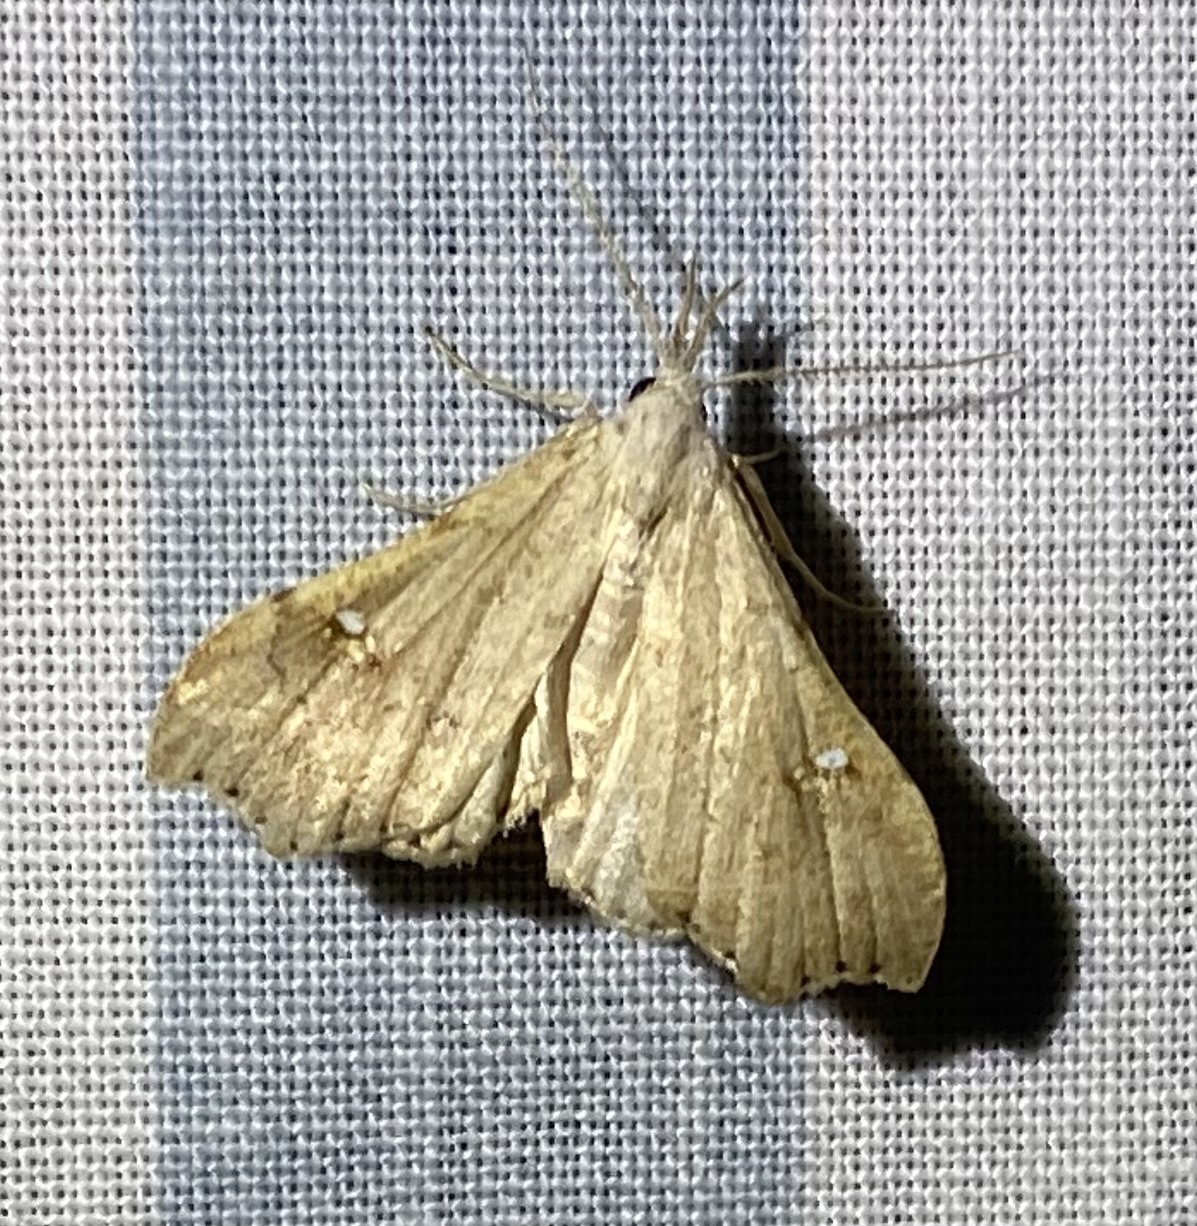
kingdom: Animalia
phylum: Arthropoda
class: Insecta
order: Lepidoptera
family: Erebidae
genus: Redectis
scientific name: Redectis vitrea
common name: White-spotted redectis
